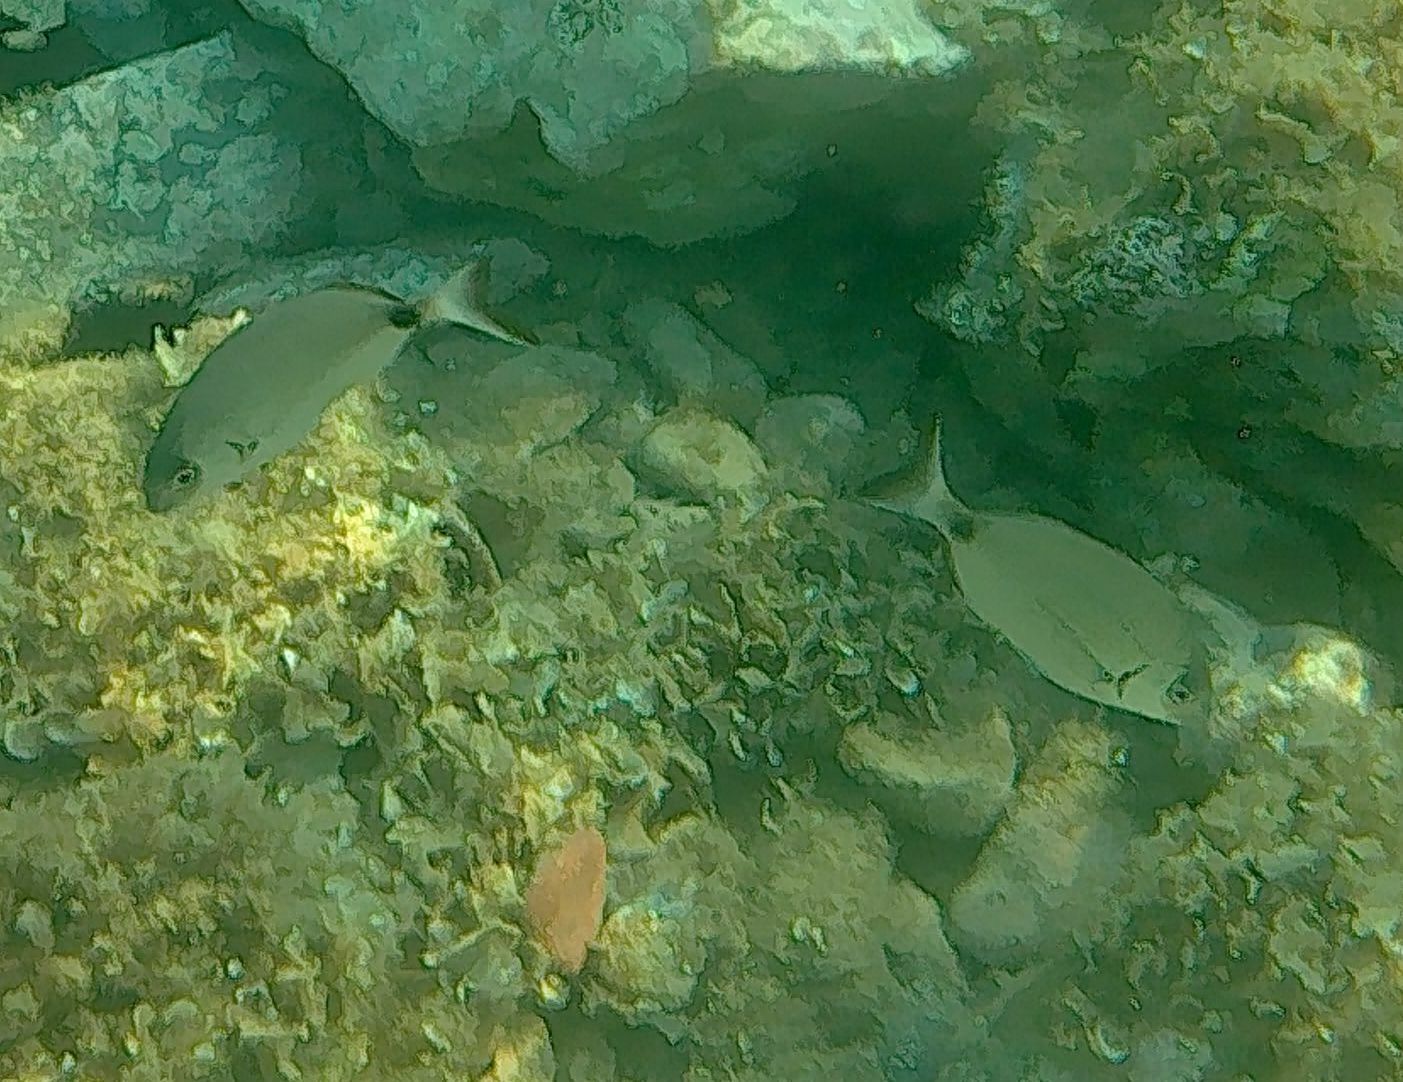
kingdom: Animalia
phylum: Chordata
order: Perciformes
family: Sparidae
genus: Diplodus
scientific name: Diplodus sargus
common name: White seabream
